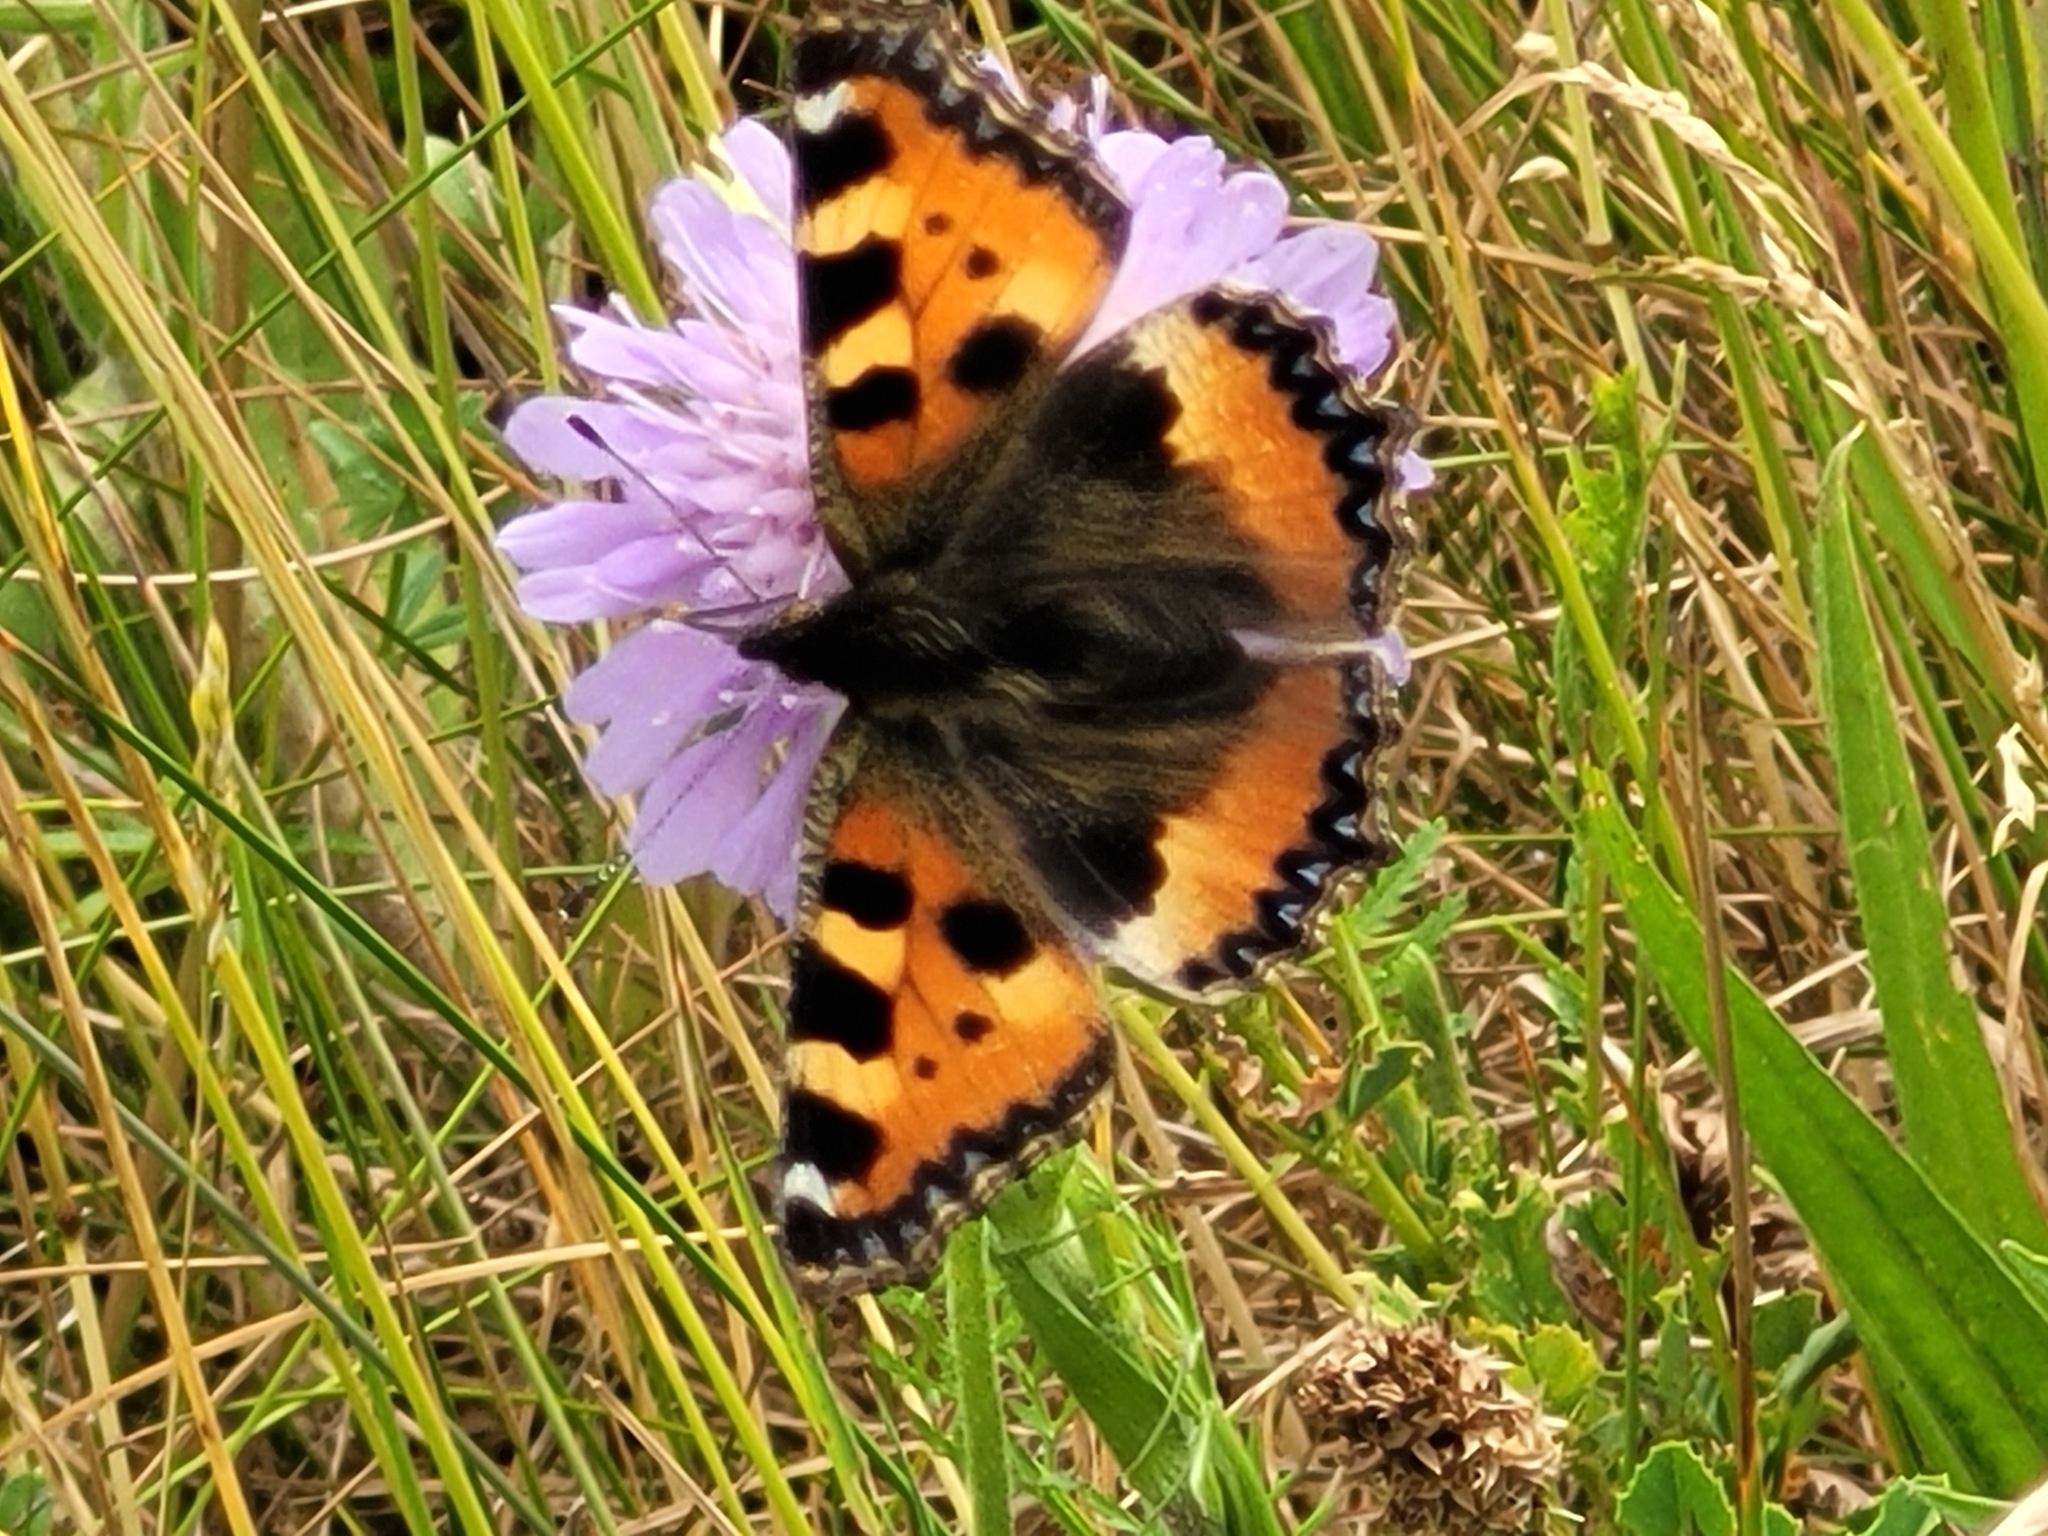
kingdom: Animalia
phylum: Arthropoda
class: Insecta
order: Lepidoptera
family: Nymphalidae
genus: Aglais
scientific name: Aglais urticae
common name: Small tortoiseshell
